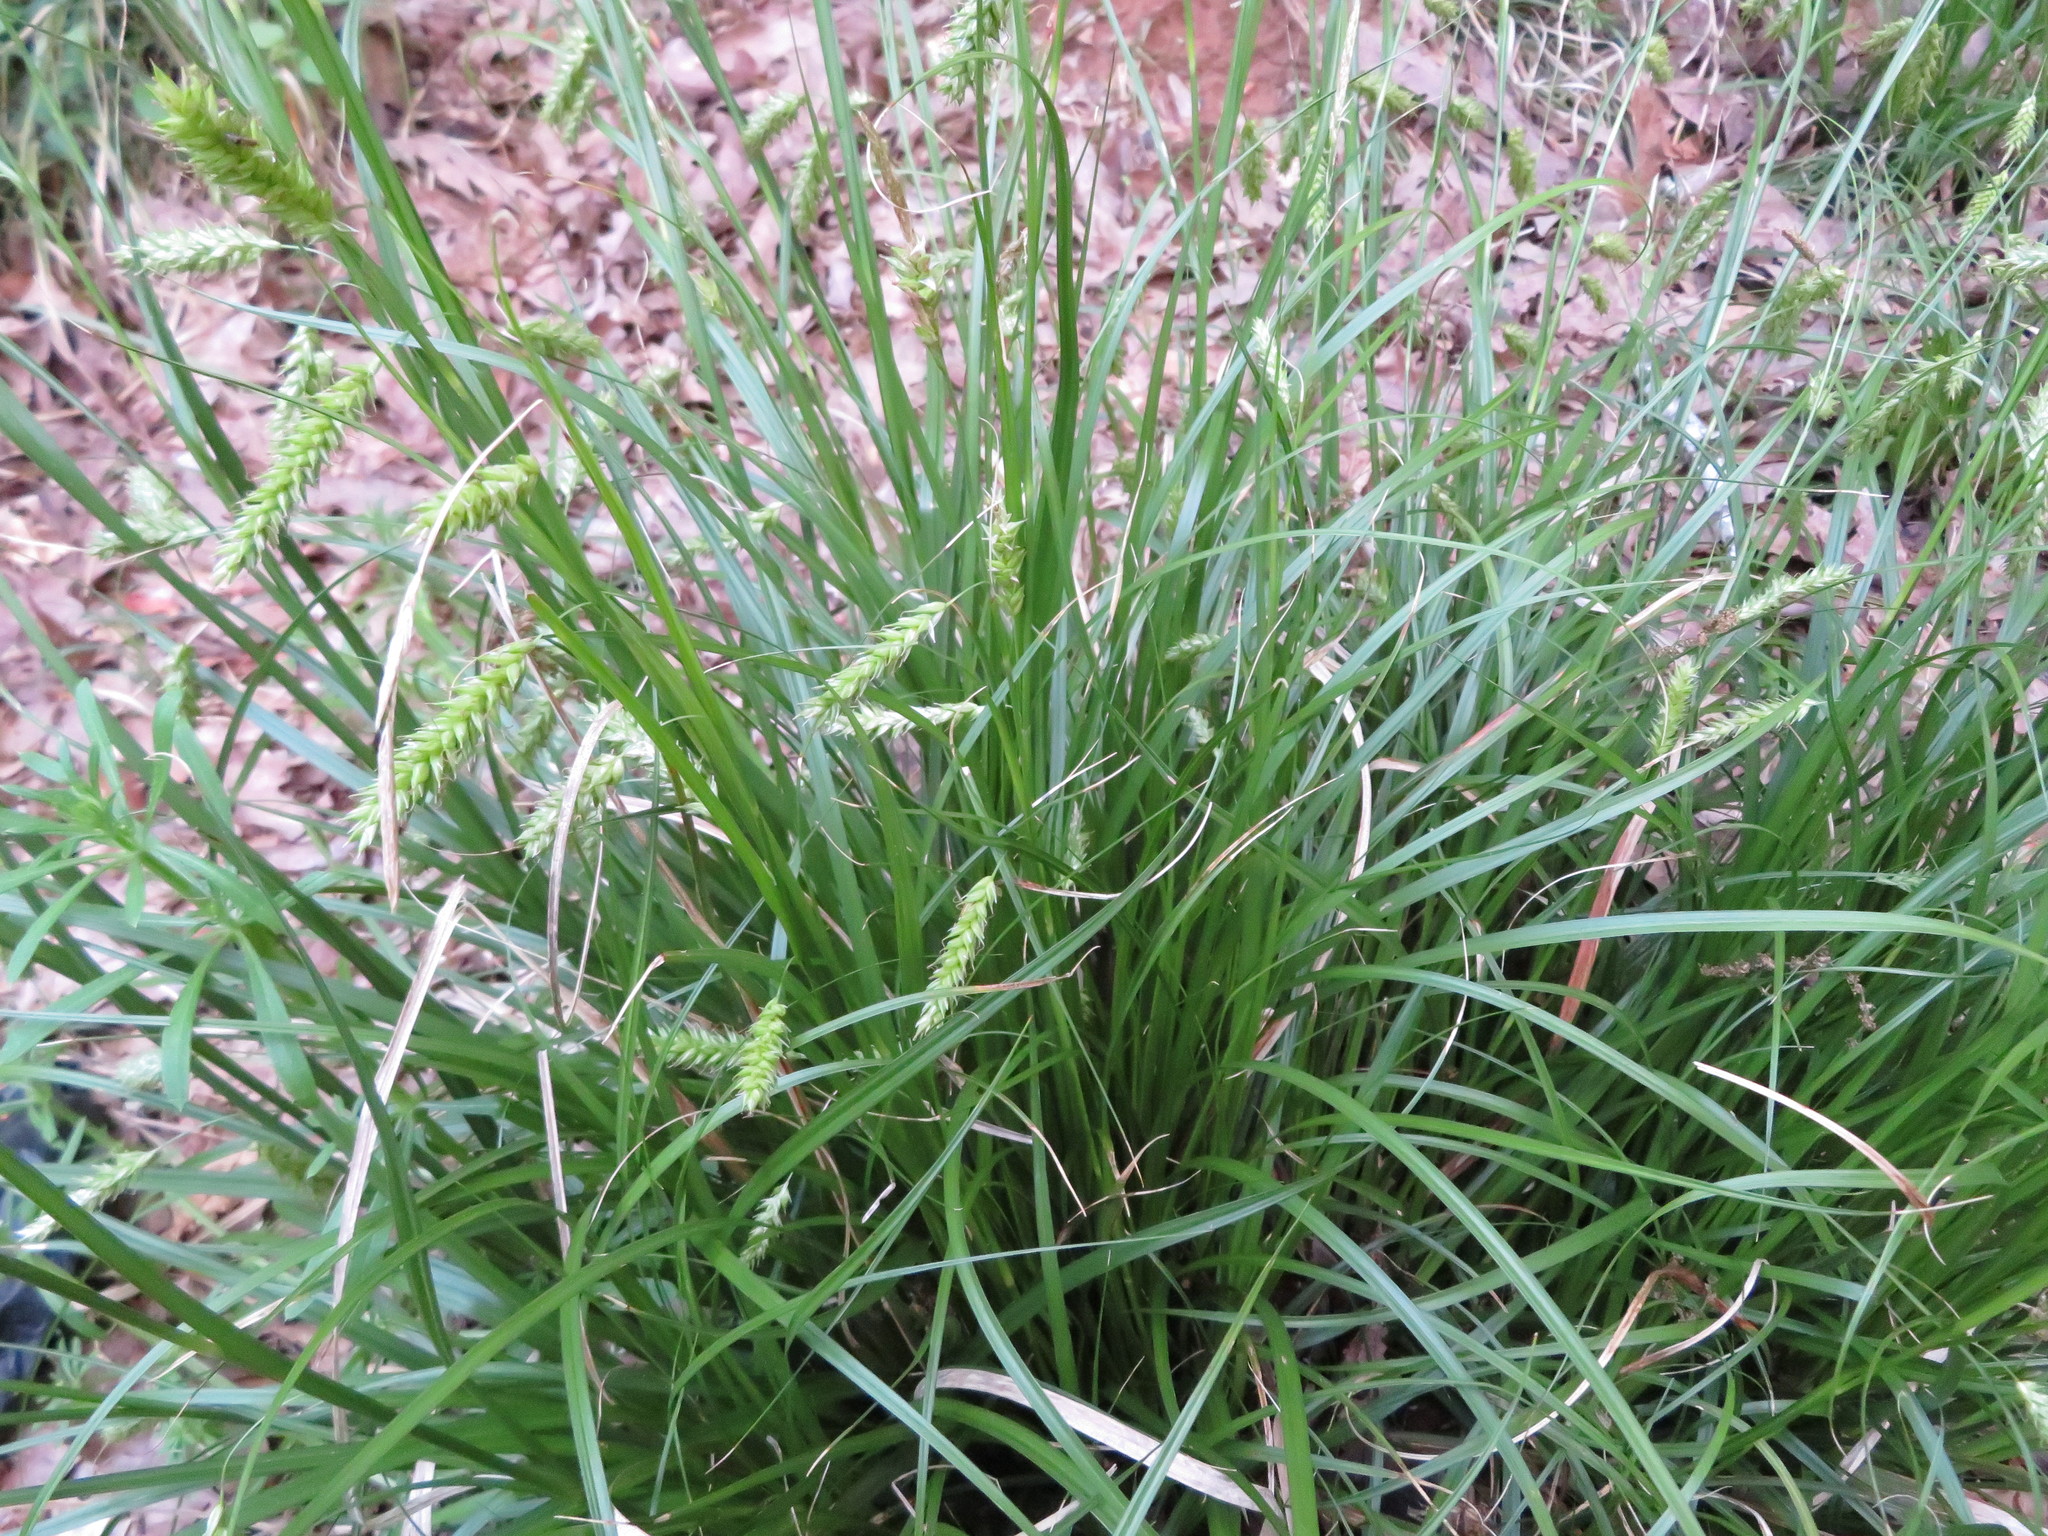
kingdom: Plantae
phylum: Tracheophyta
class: Liliopsida
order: Poales
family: Cyperaceae
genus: Carex
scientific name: Carex cherokeensis
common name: Cherokee sedge
